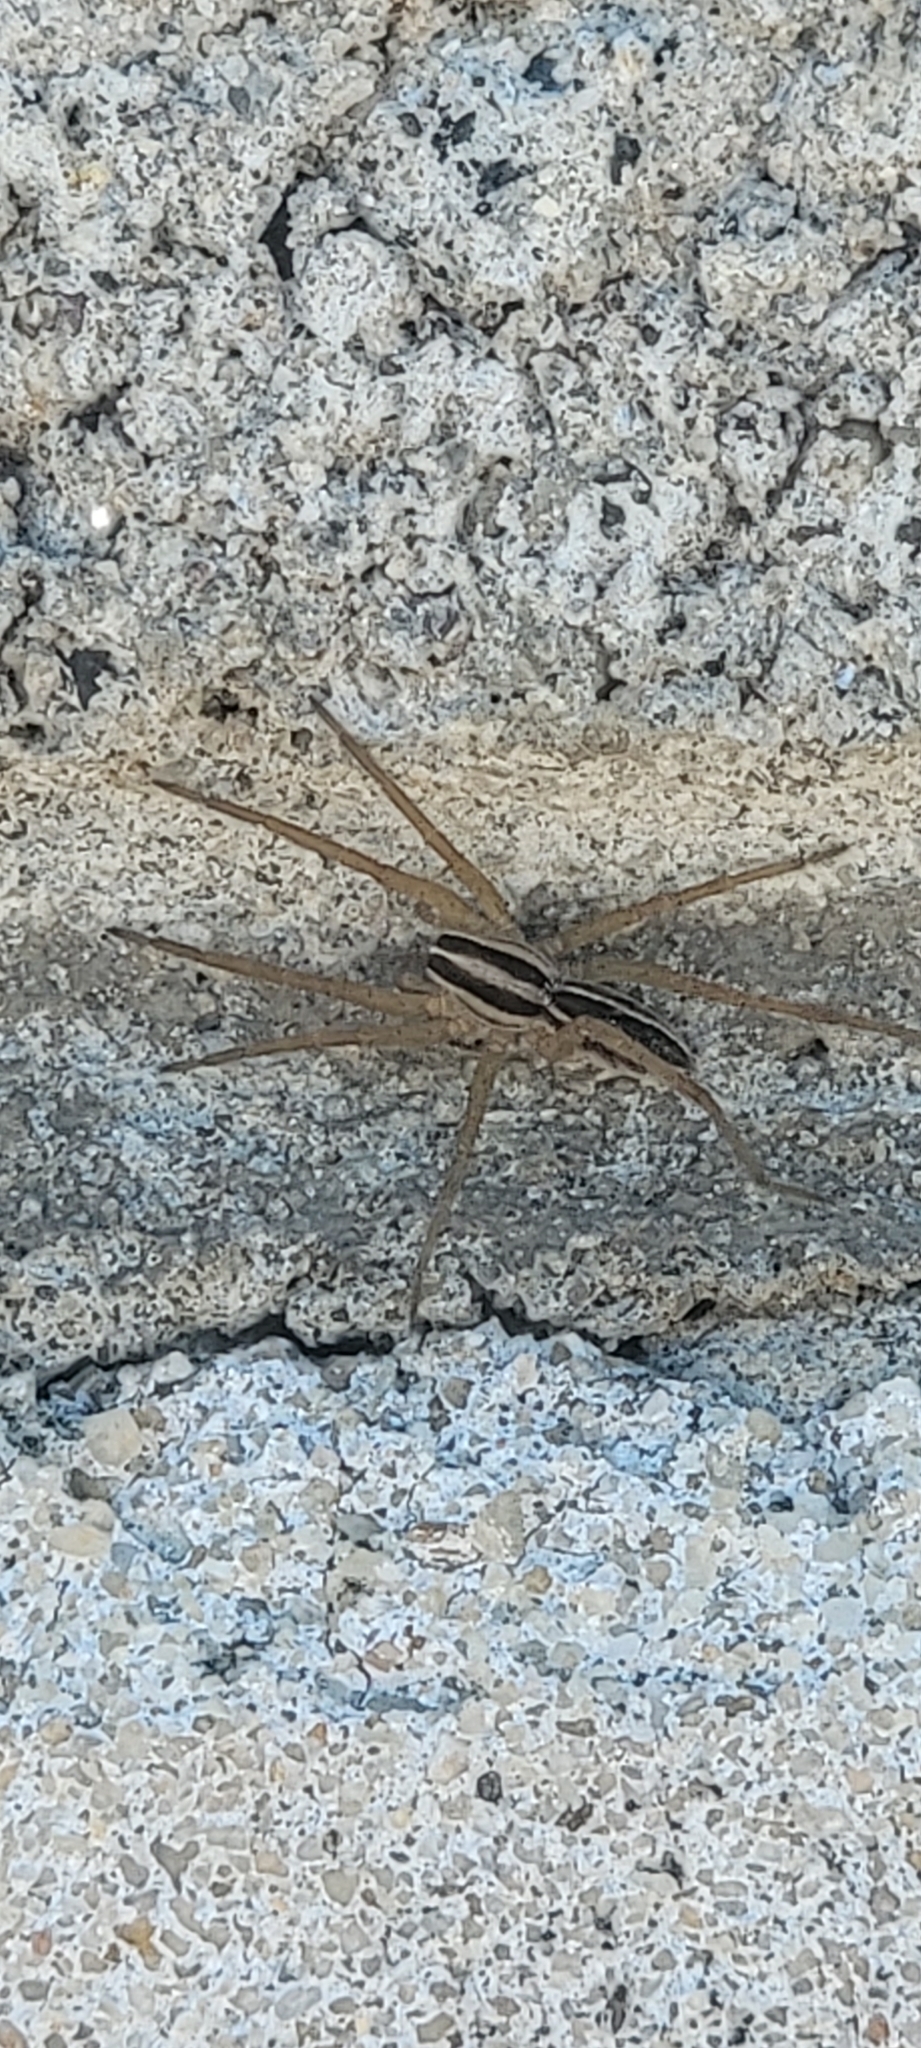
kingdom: Animalia
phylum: Arthropoda
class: Arachnida
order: Araneae
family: Lycosidae
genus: Rabidosa
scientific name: Rabidosa rabida
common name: Rabid wolf spider
